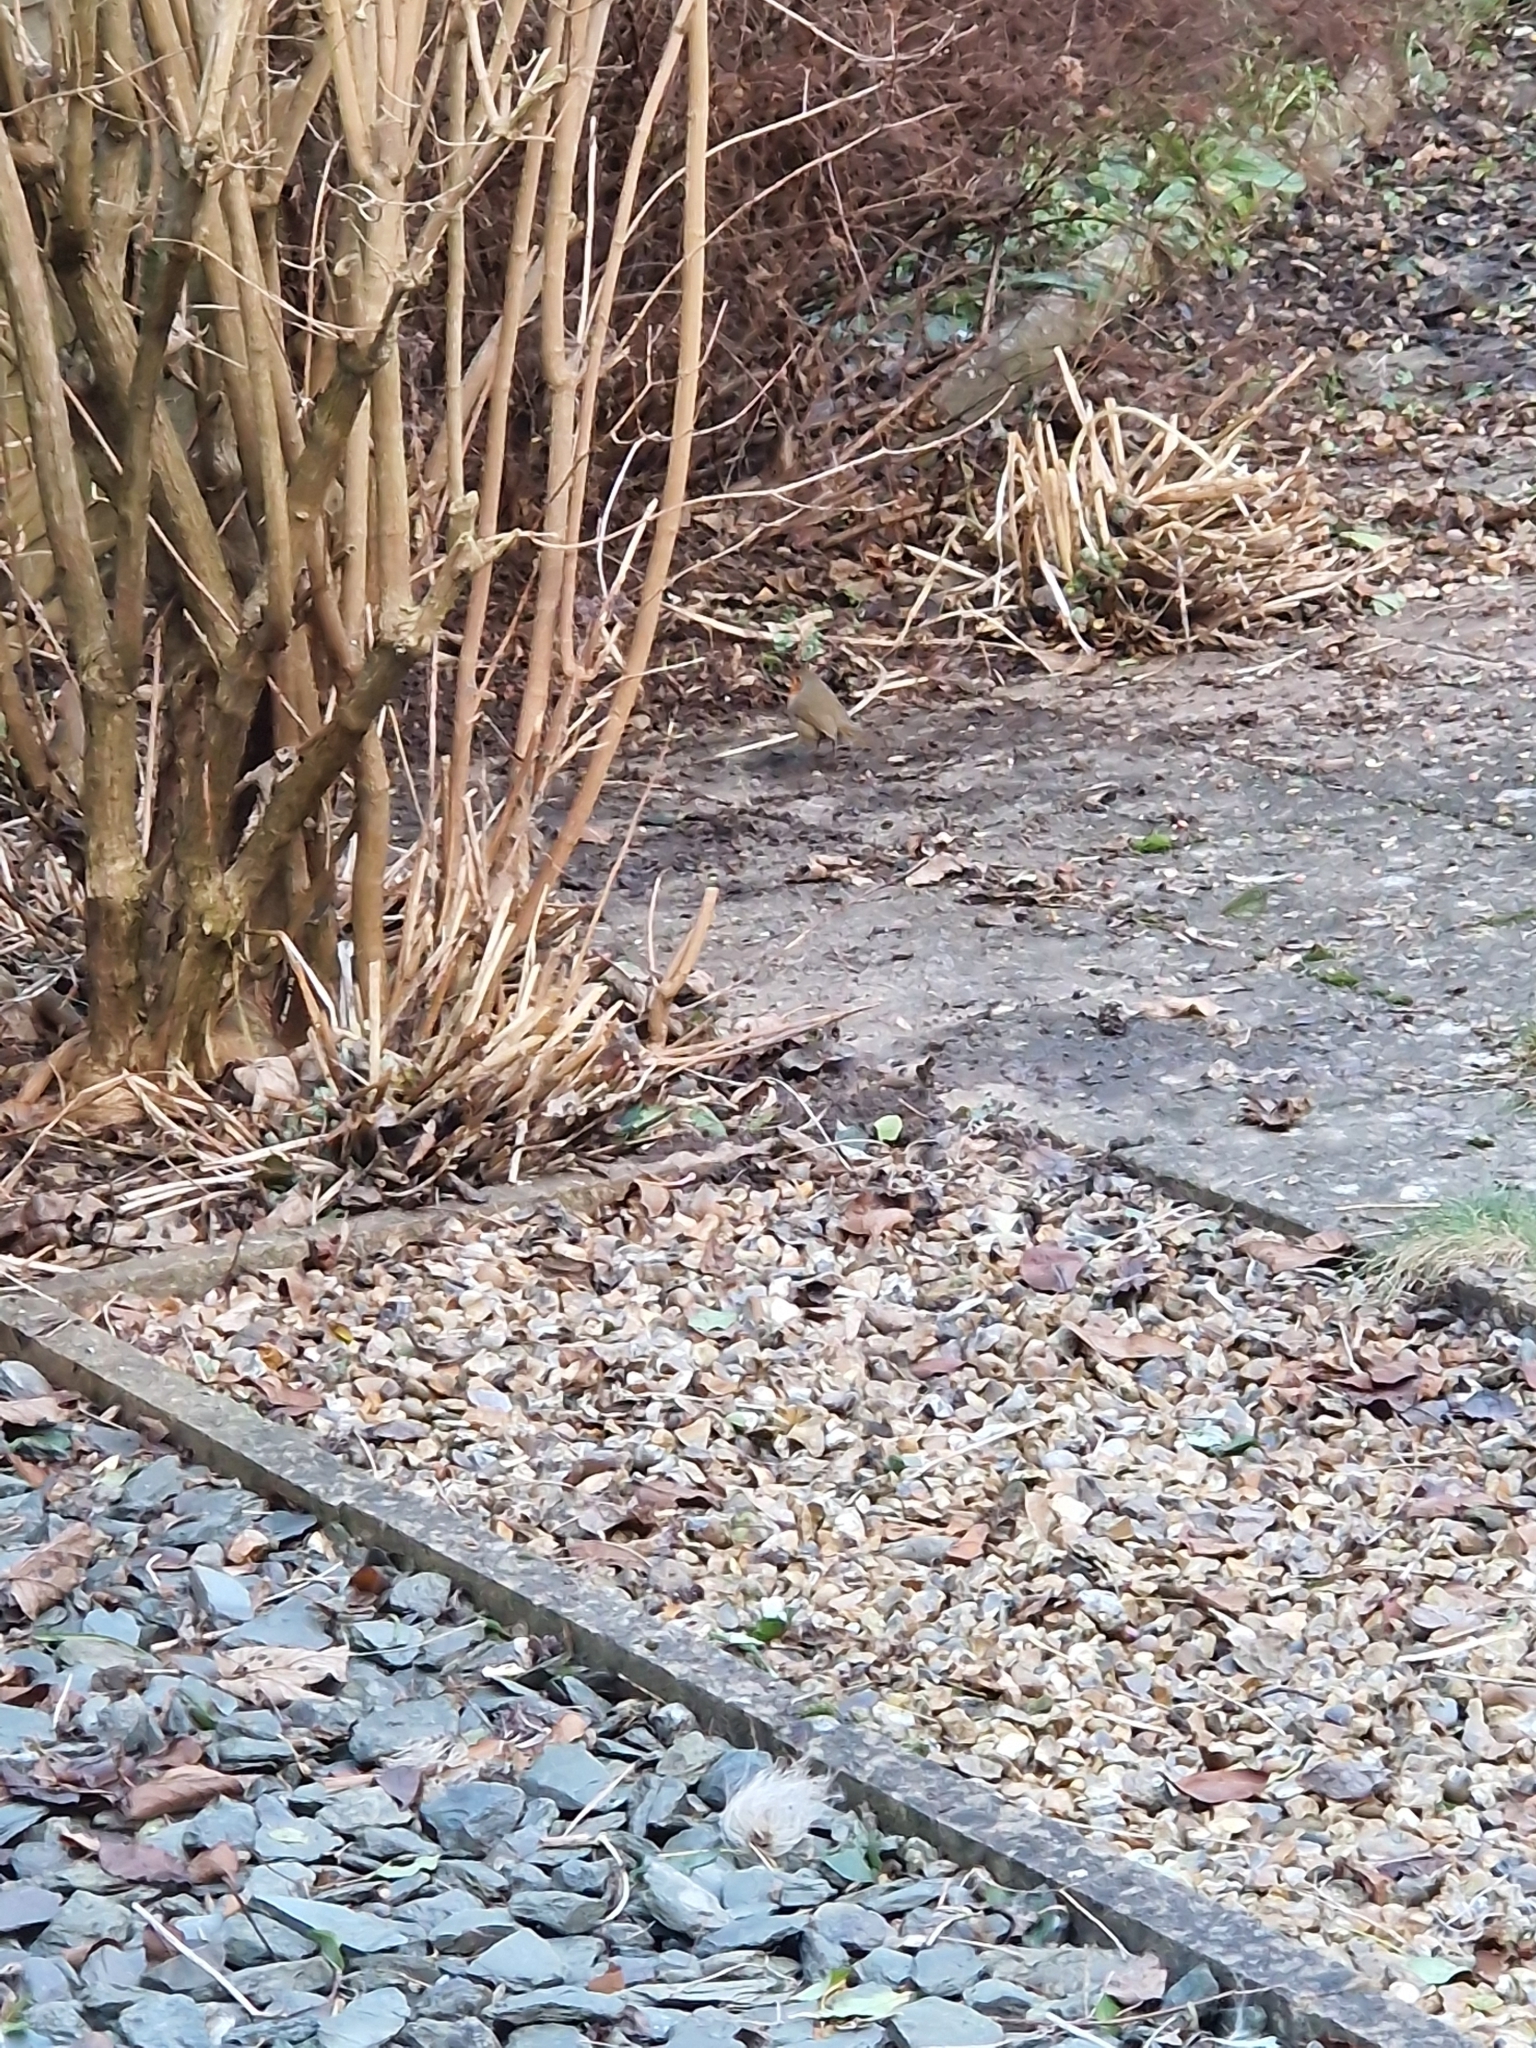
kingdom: Animalia
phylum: Chordata
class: Aves
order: Passeriformes
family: Muscicapidae
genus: Erithacus
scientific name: Erithacus rubecula
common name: European robin
